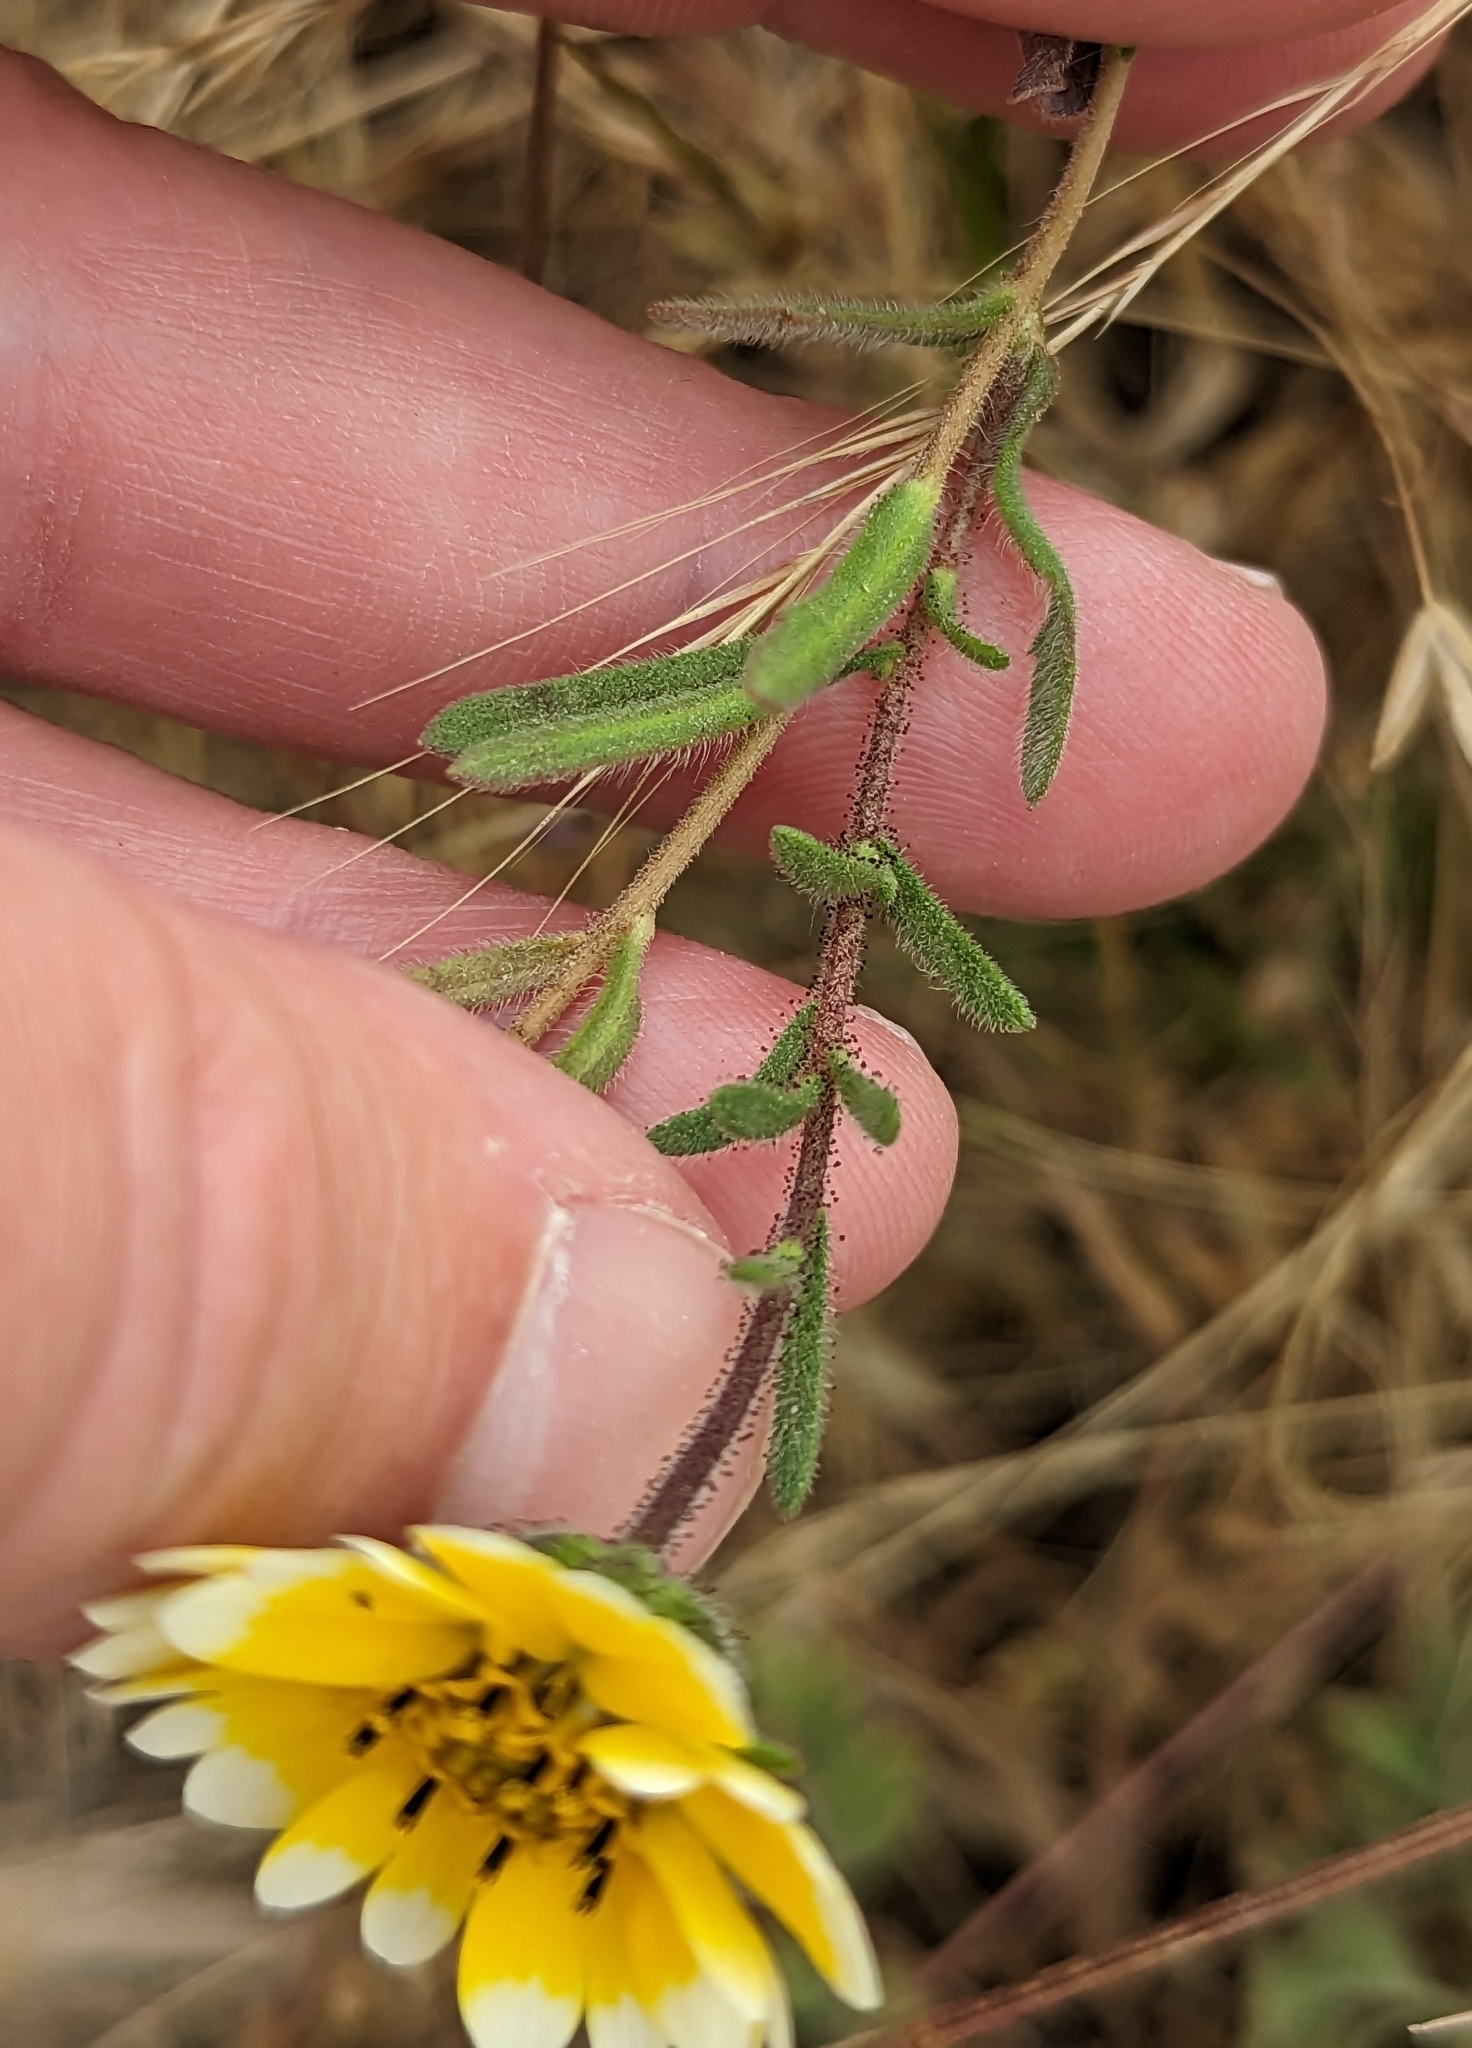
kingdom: Plantae
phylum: Tracheophyta
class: Magnoliopsida
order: Asterales
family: Asteraceae
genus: Layia
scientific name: Layia platyglossa
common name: Tidy-tips
